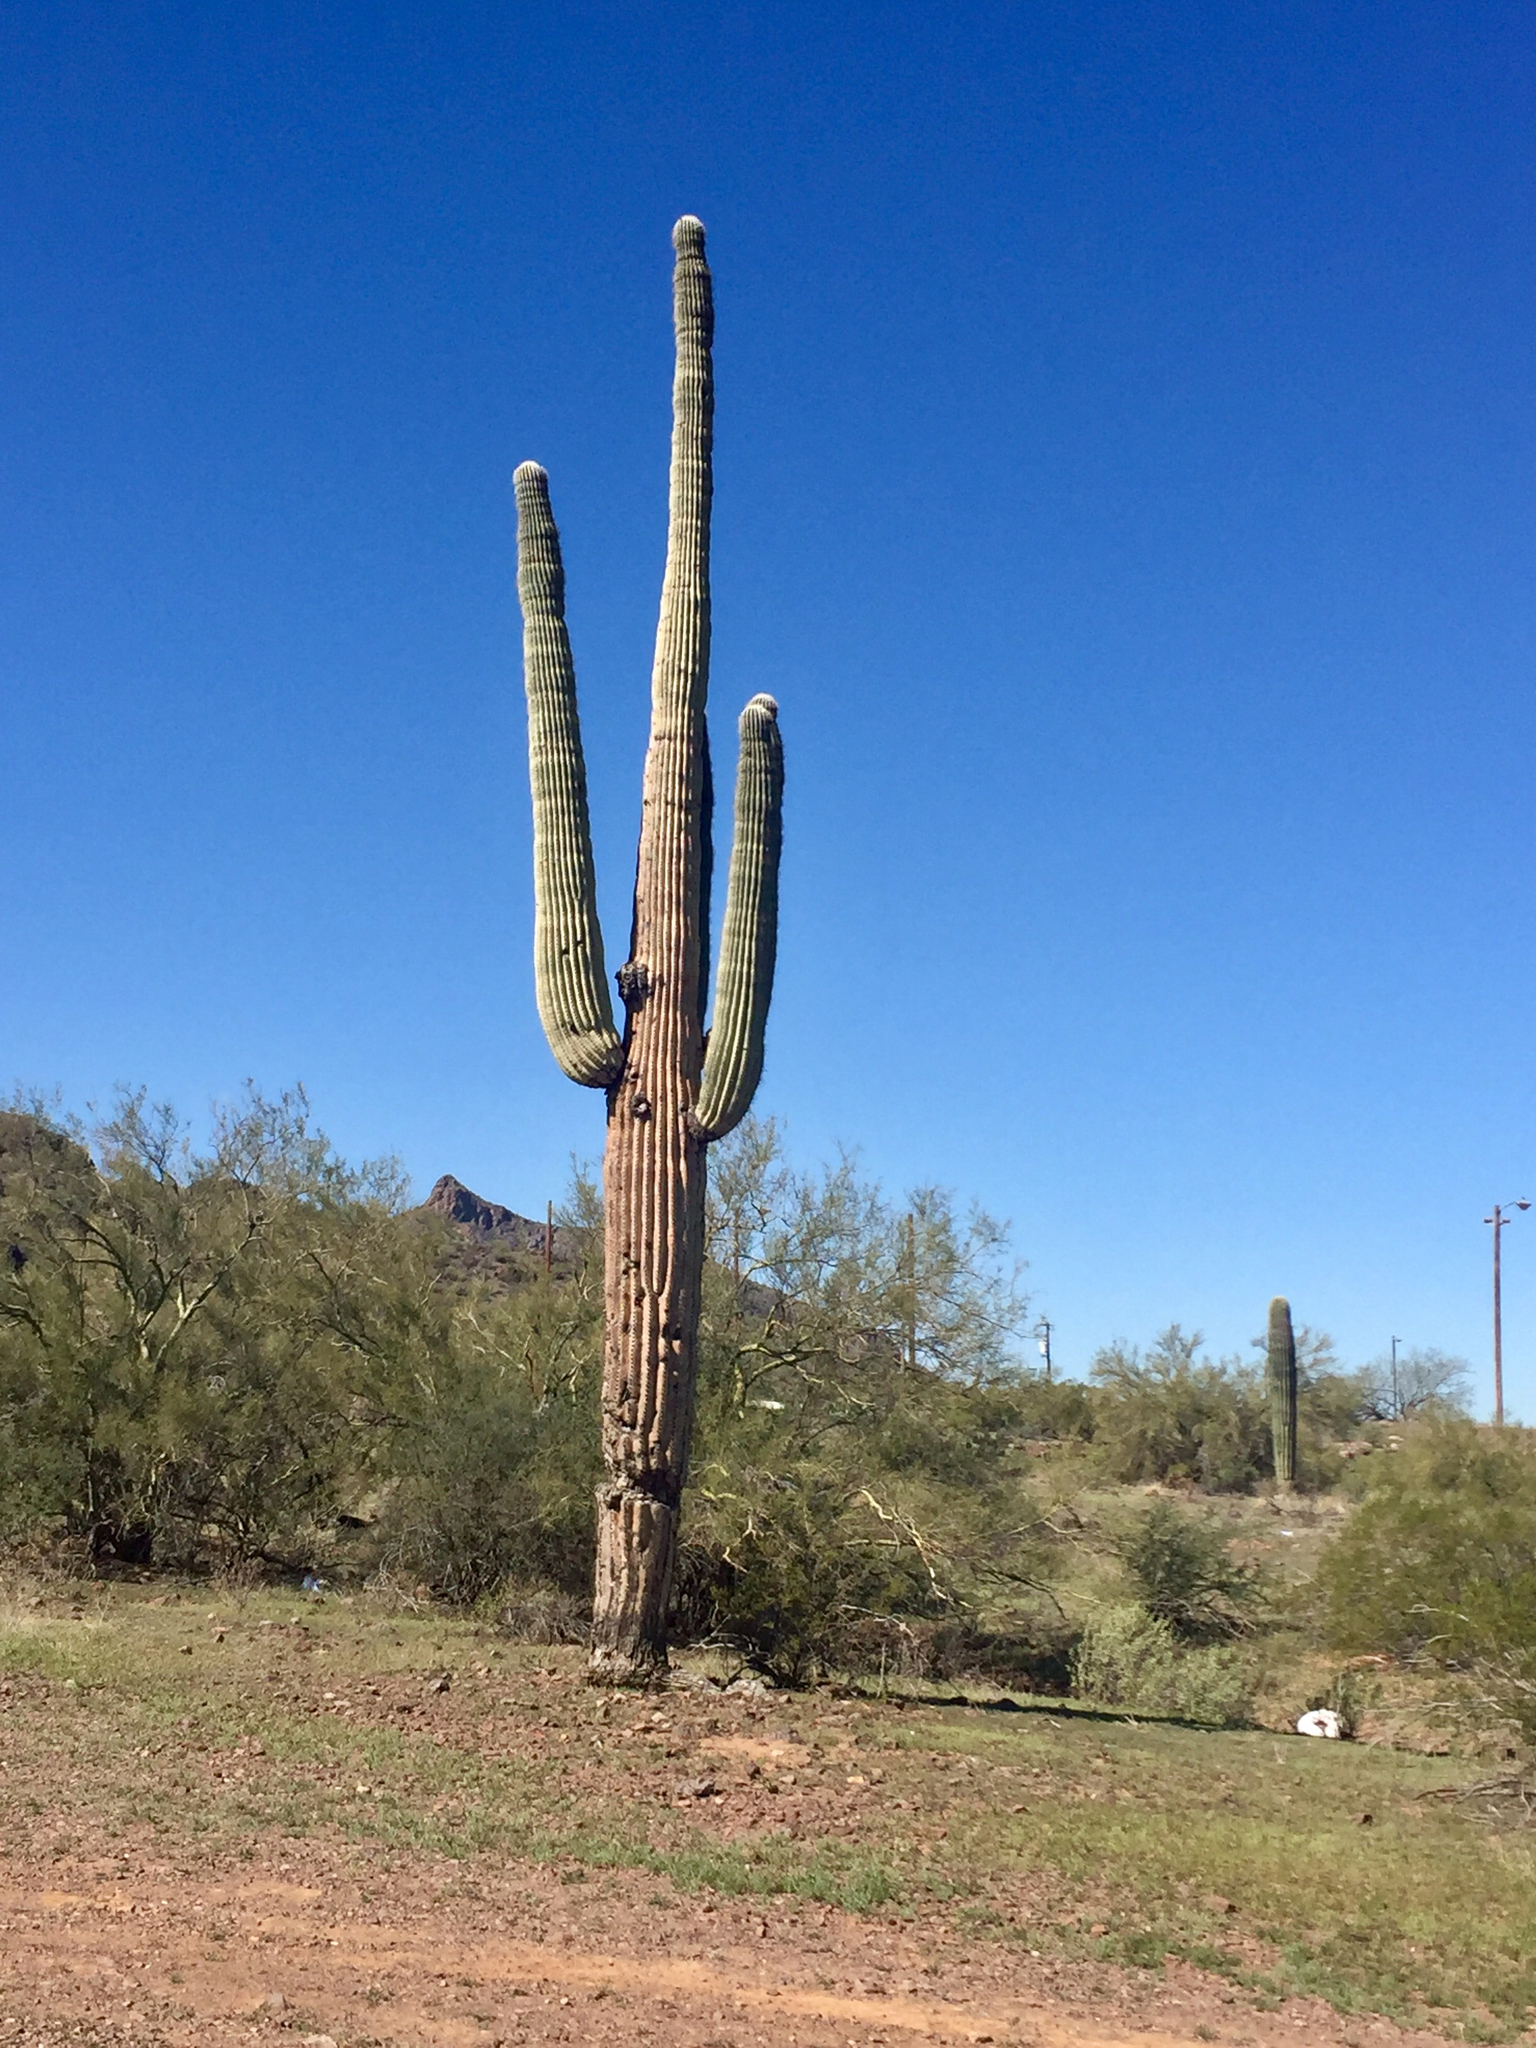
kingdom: Plantae
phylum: Tracheophyta
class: Magnoliopsida
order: Caryophyllales
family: Cactaceae
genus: Carnegiea
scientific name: Carnegiea gigantea
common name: Saguaro
